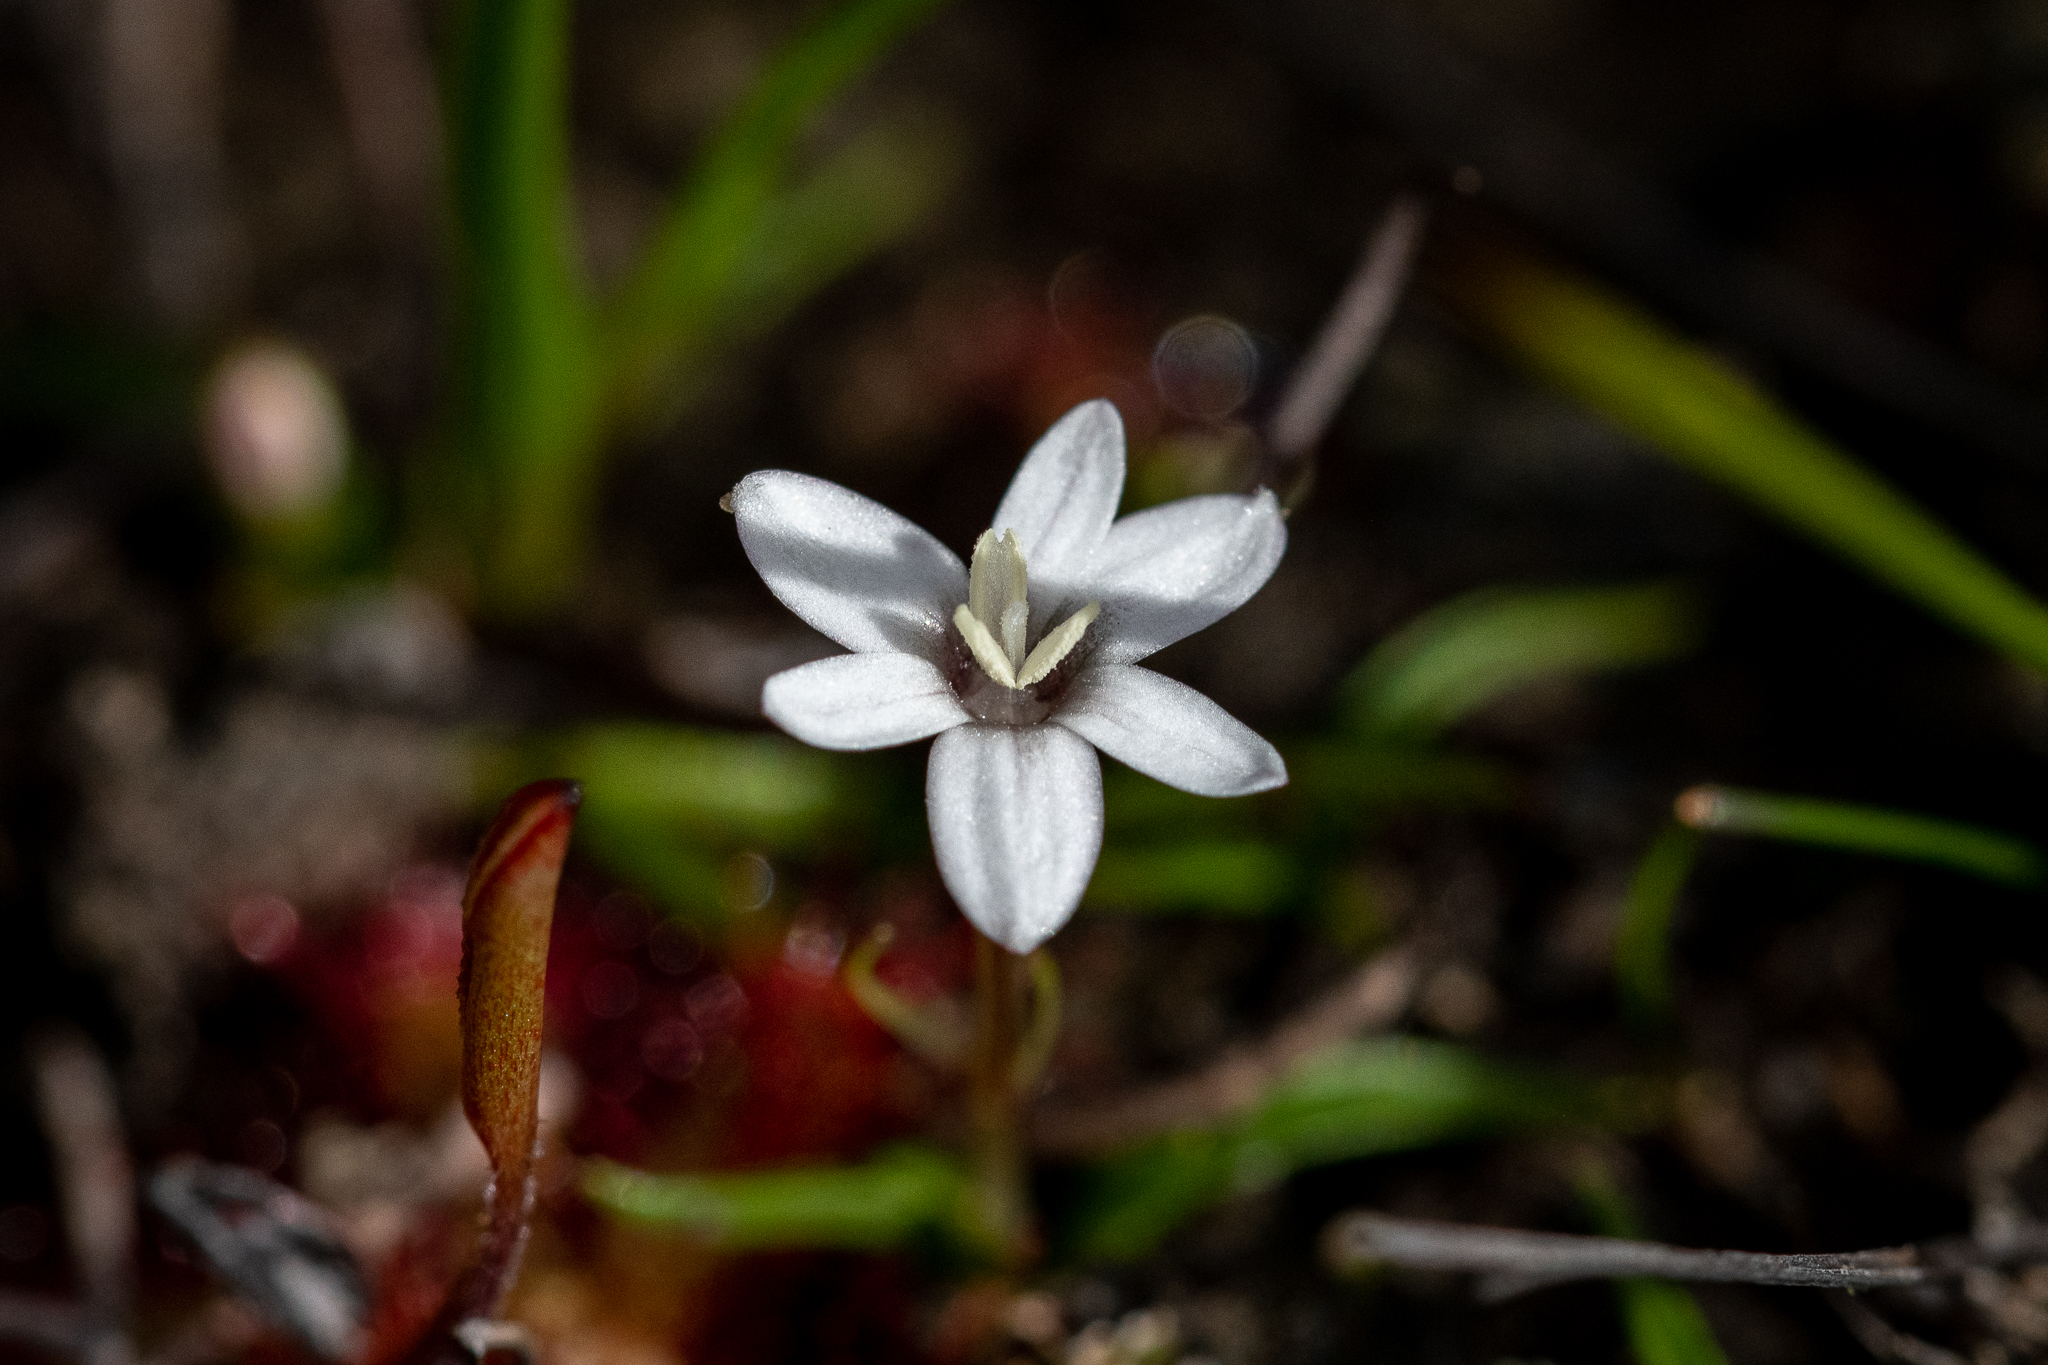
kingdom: Plantae
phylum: Tracheophyta
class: Liliopsida
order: Asparagales
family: Hypoxidaceae
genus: Pauridia
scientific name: Pauridia minuta
